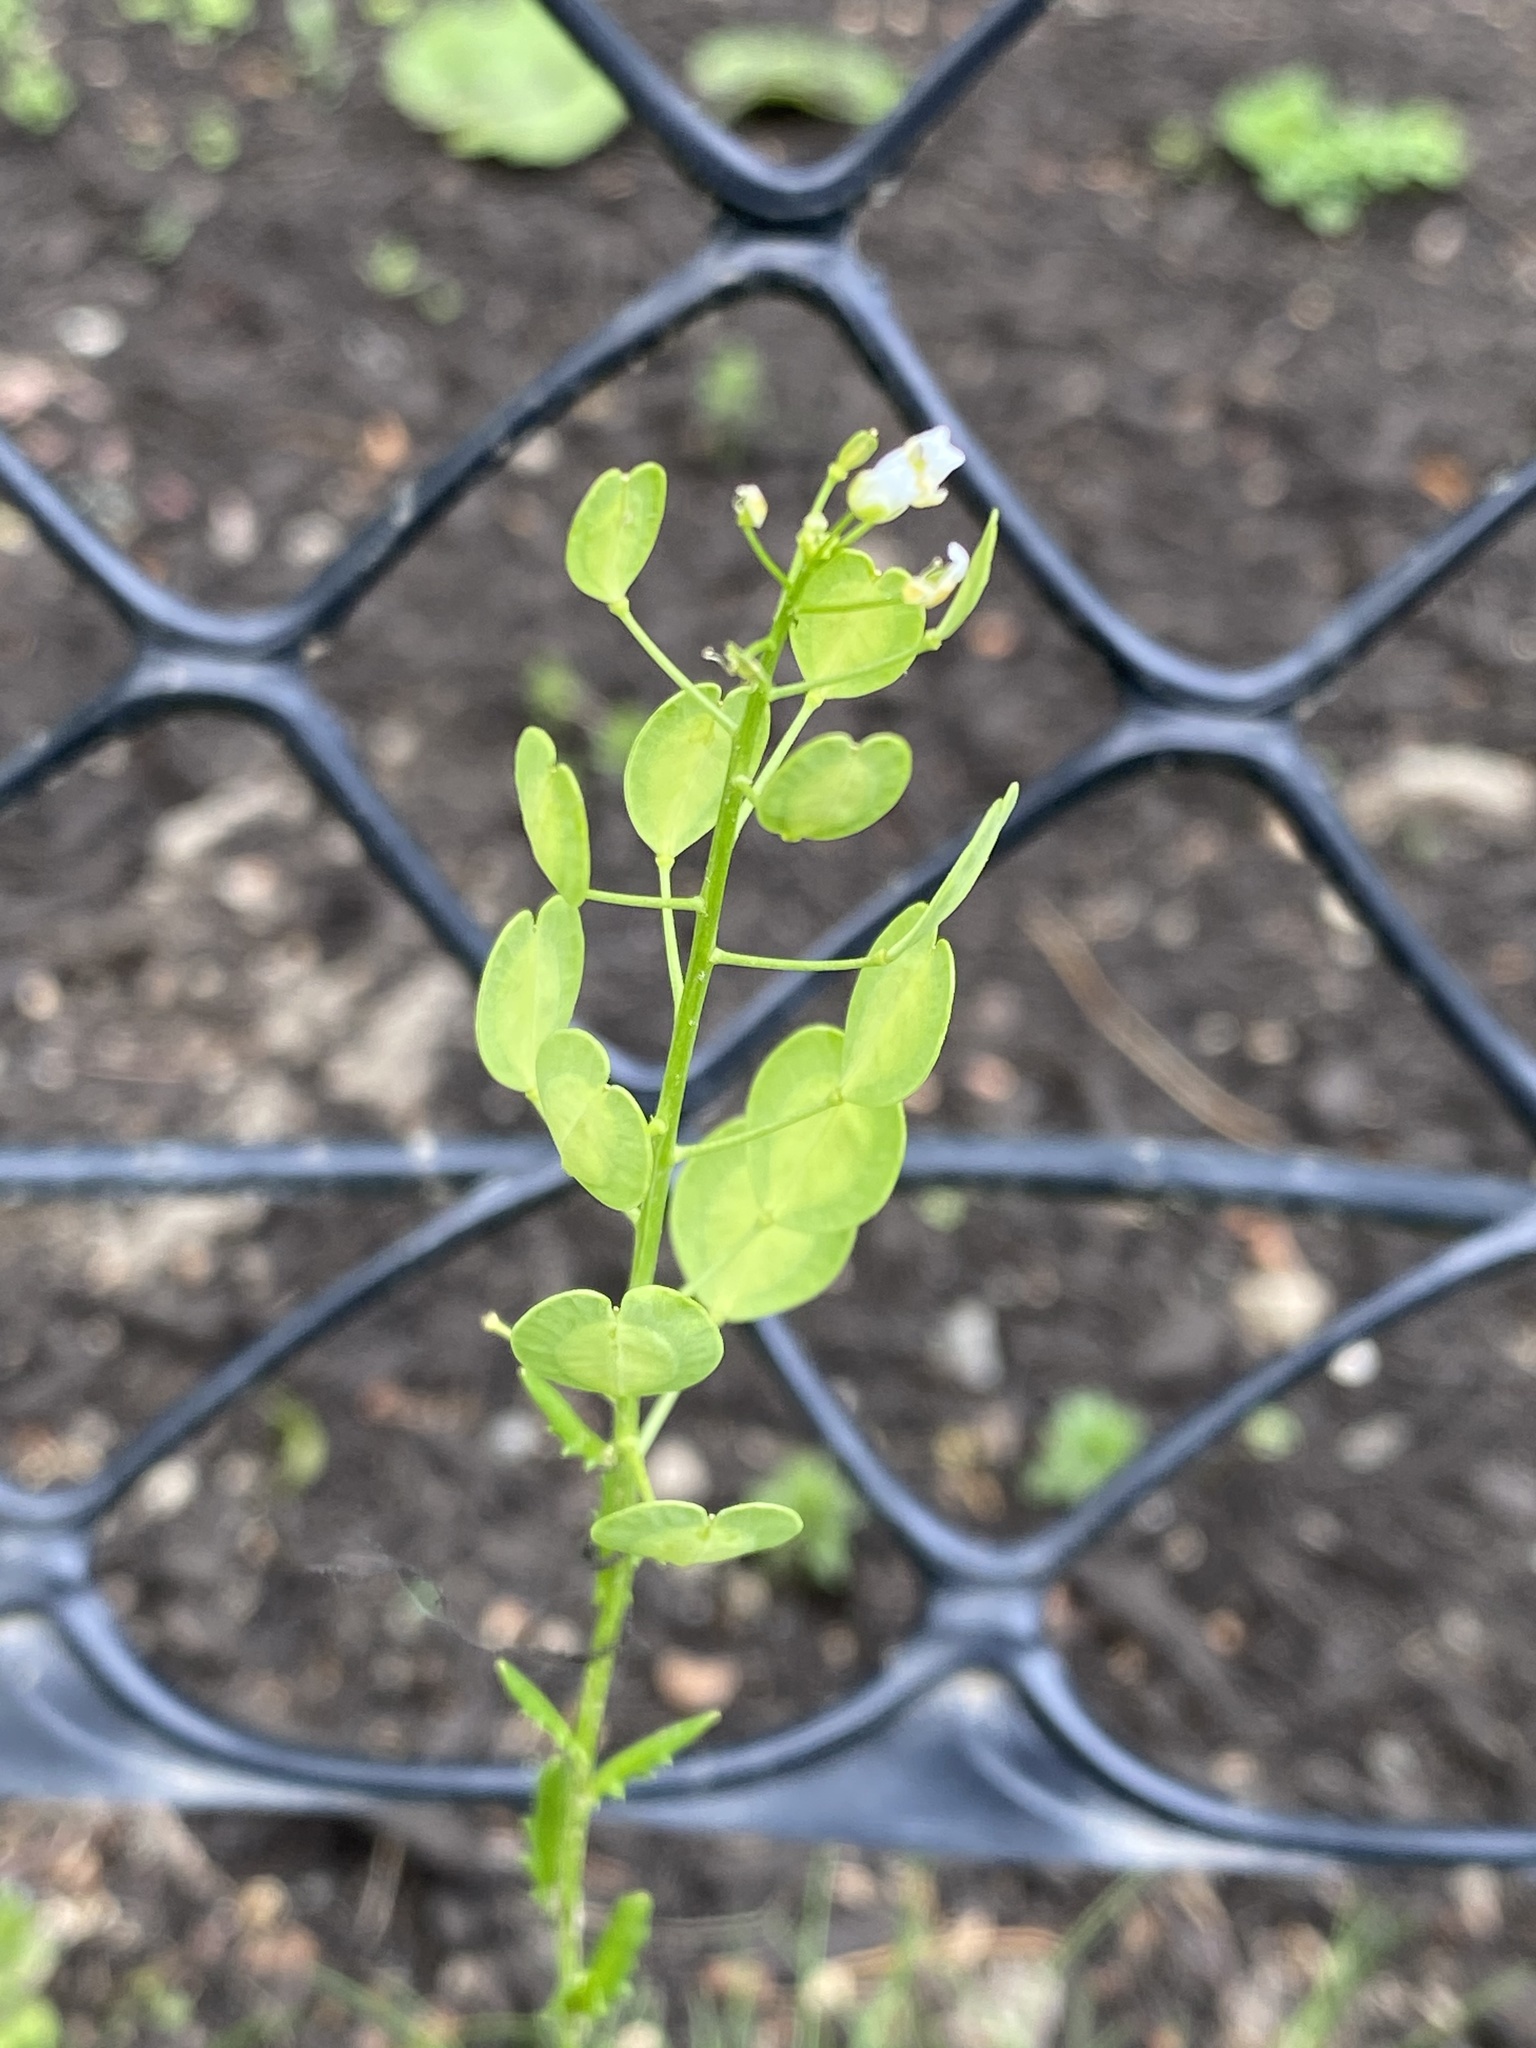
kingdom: Plantae
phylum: Tracheophyta
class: Magnoliopsida
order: Brassicales
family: Brassicaceae
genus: Thlaspi
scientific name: Thlaspi arvense
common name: Field pennycress
